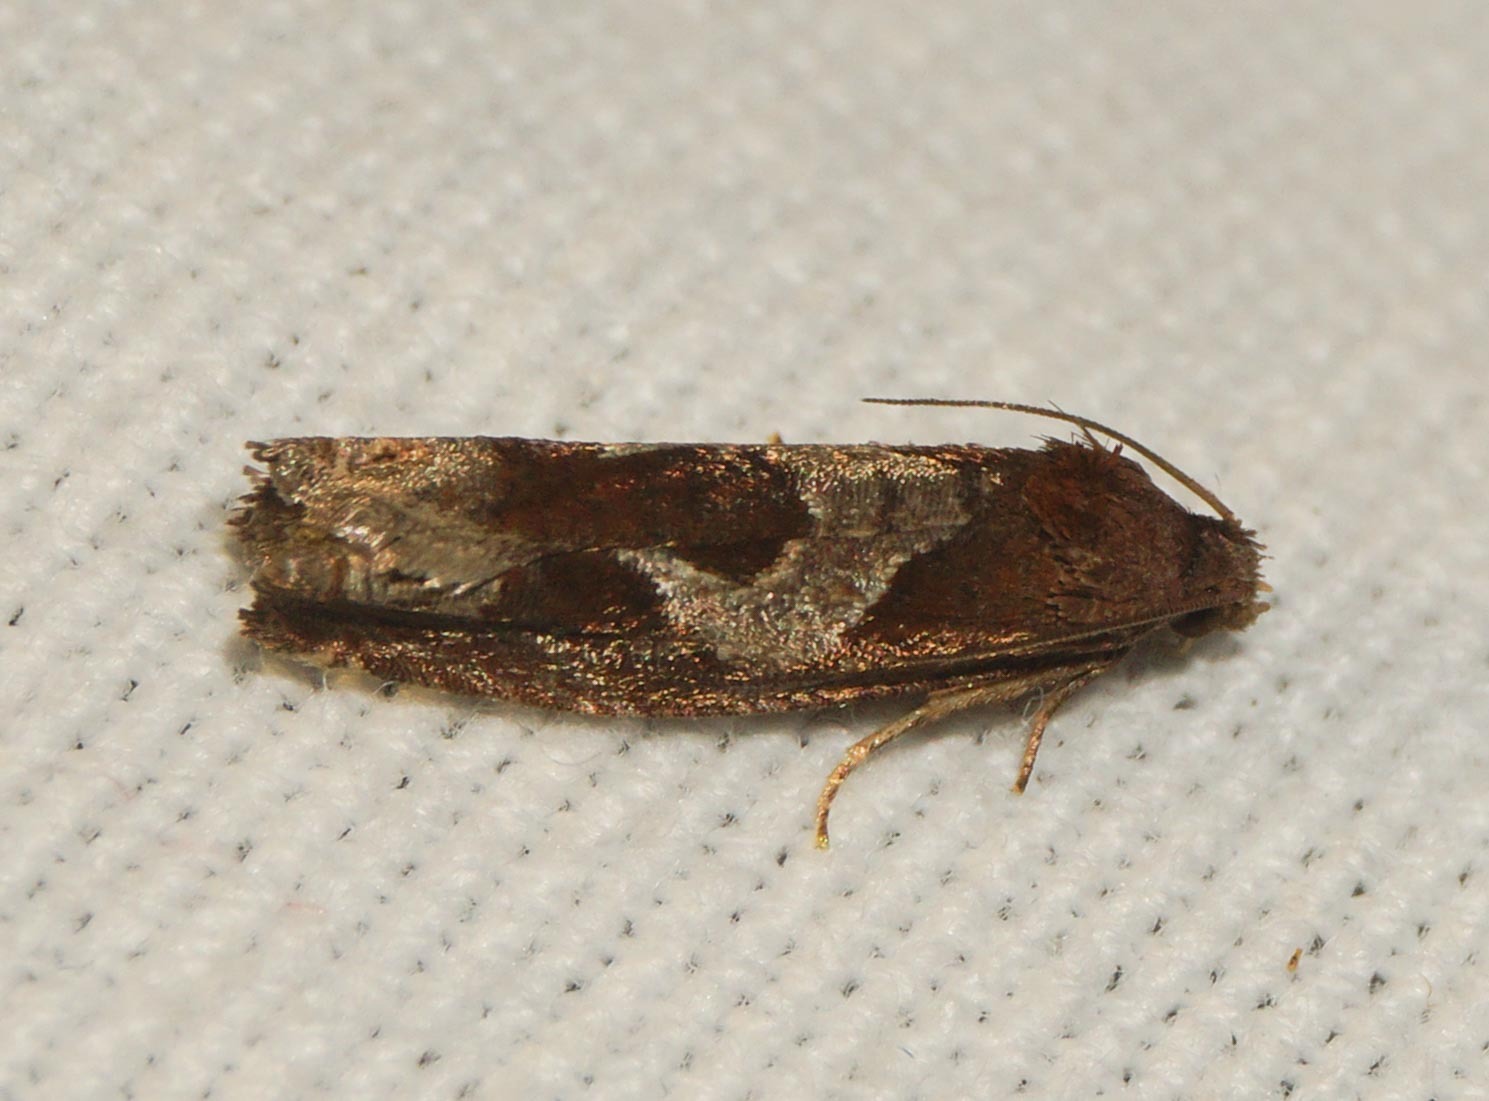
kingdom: Animalia
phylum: Arthropoda
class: Insecta
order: Lepidoptera
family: Tortricidae
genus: Epiblema
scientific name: Epiblema foenella
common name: White-foot bell
